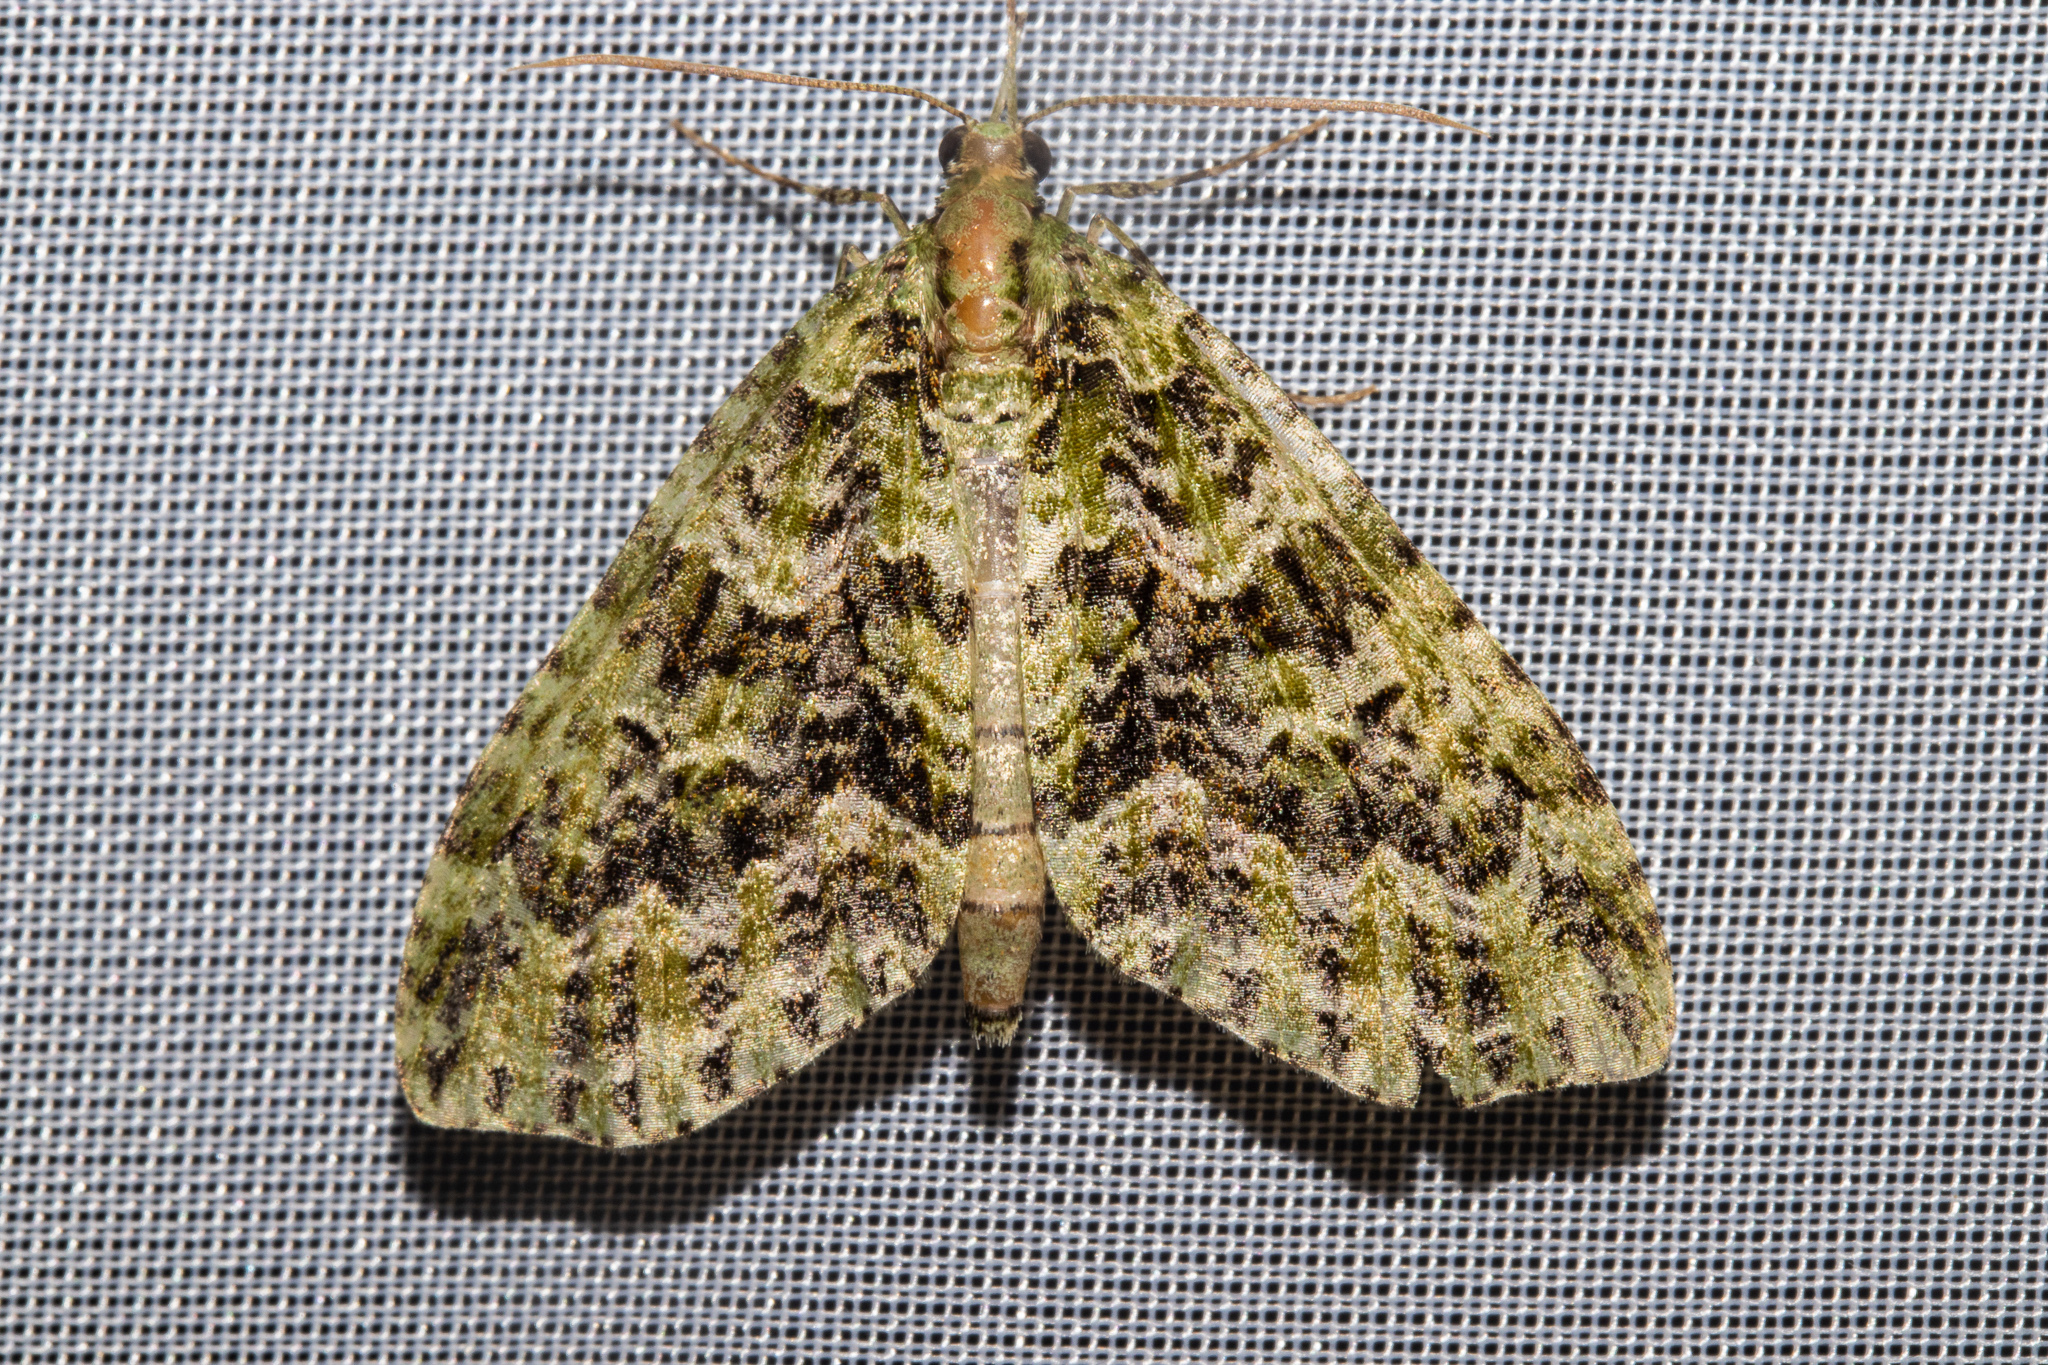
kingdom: Animalia
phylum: Arthropoda
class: Insecta
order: Lepidoptera
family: Geometridae
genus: Tatosoma
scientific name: Tatosoma tipulata
